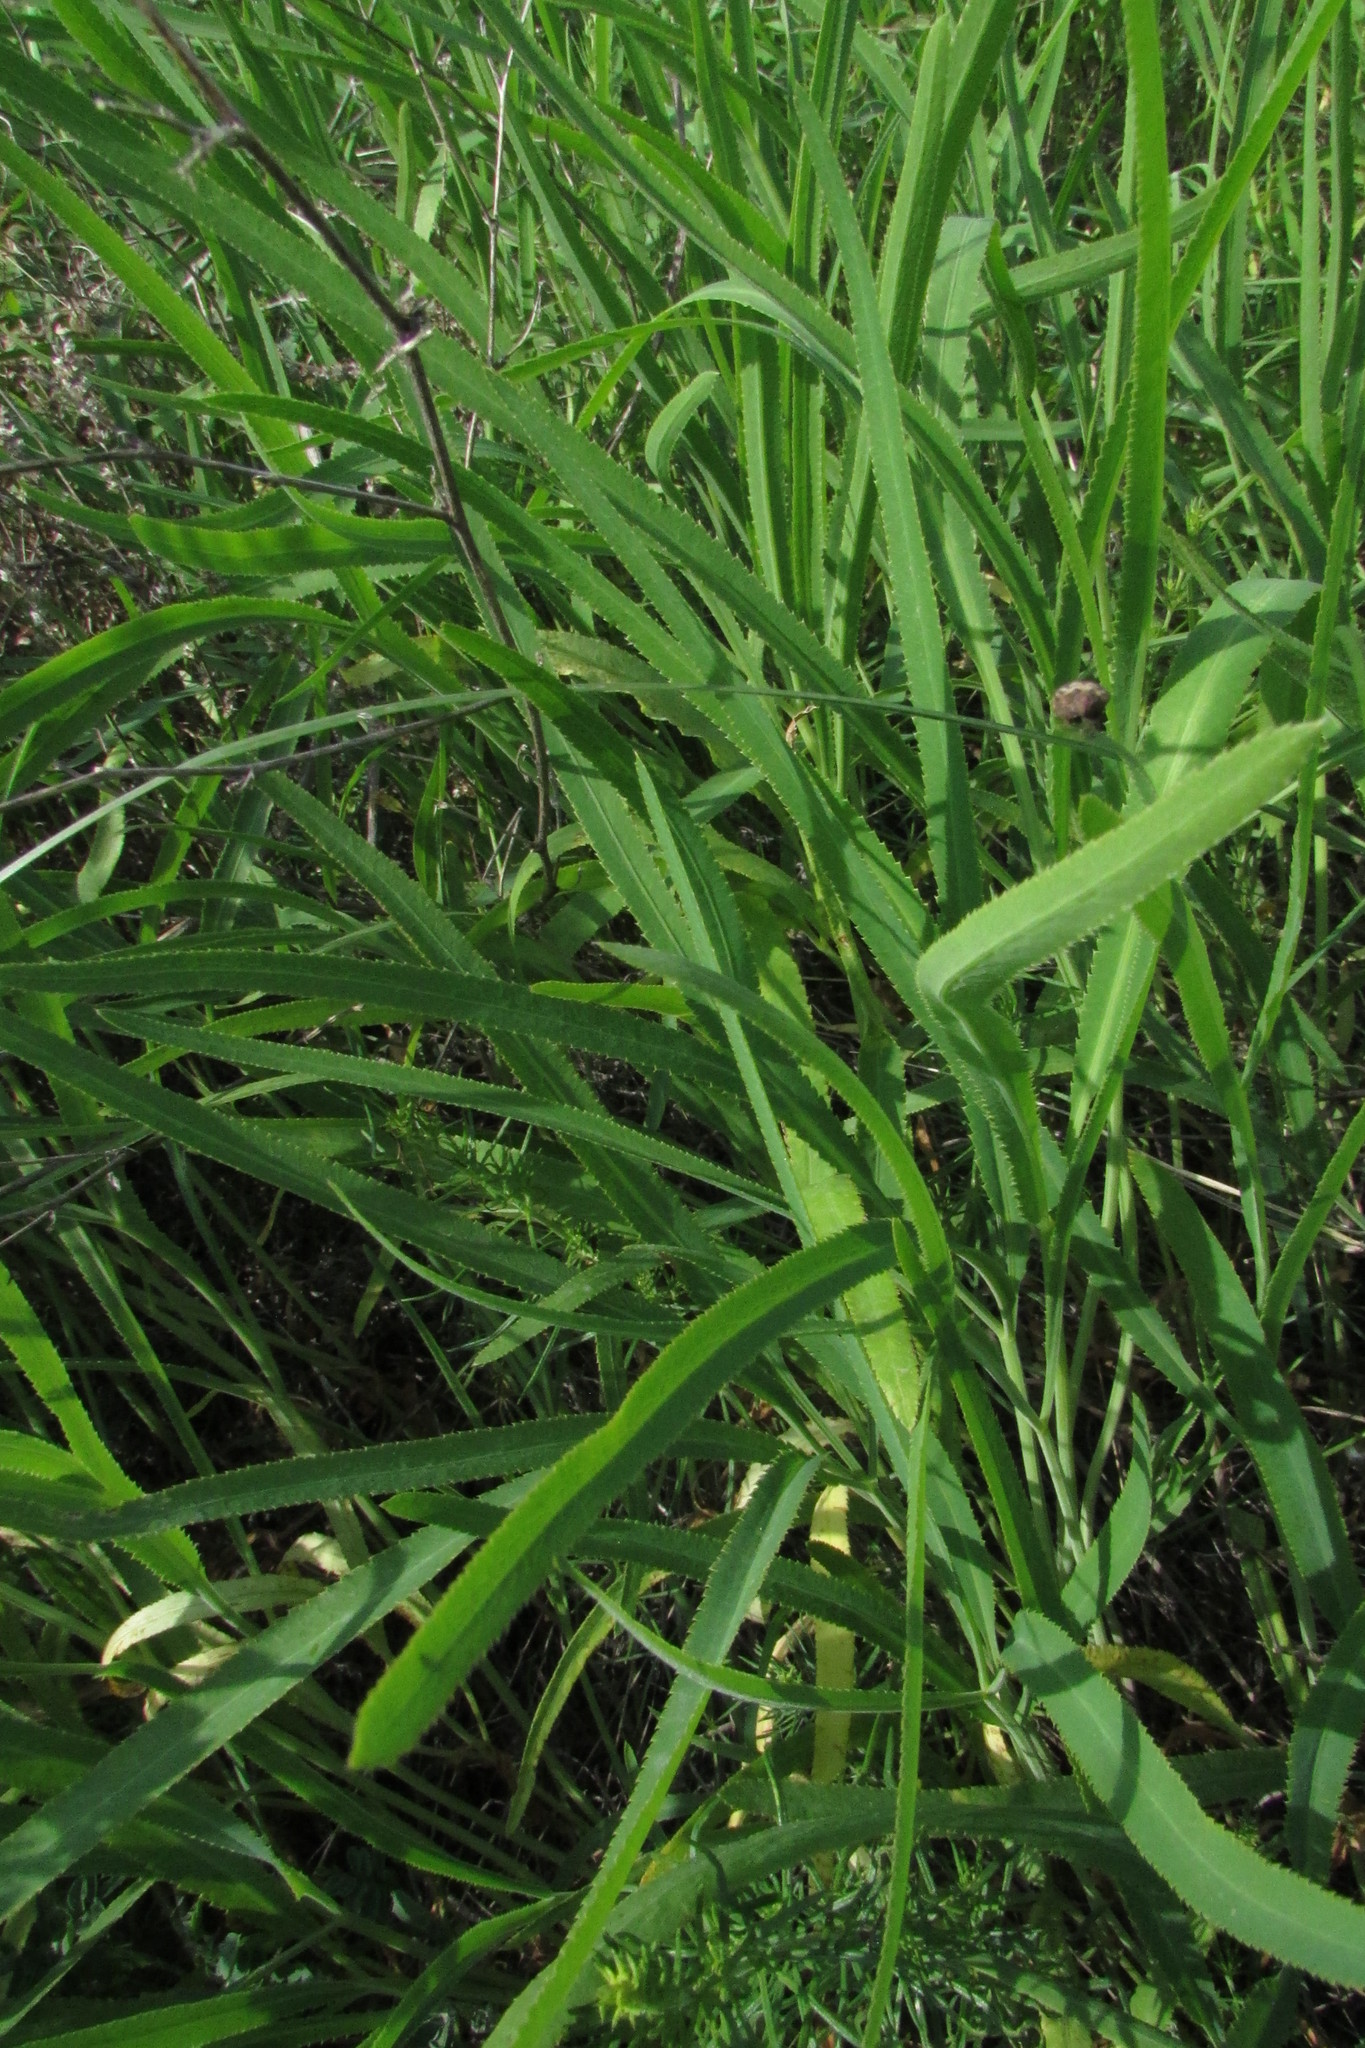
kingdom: Plantae
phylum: Tracheophyta
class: Magnoliopsida
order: Apiales
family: Apiaceae
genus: Falcaria
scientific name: Falcaria vulgaris
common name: Longleaf
